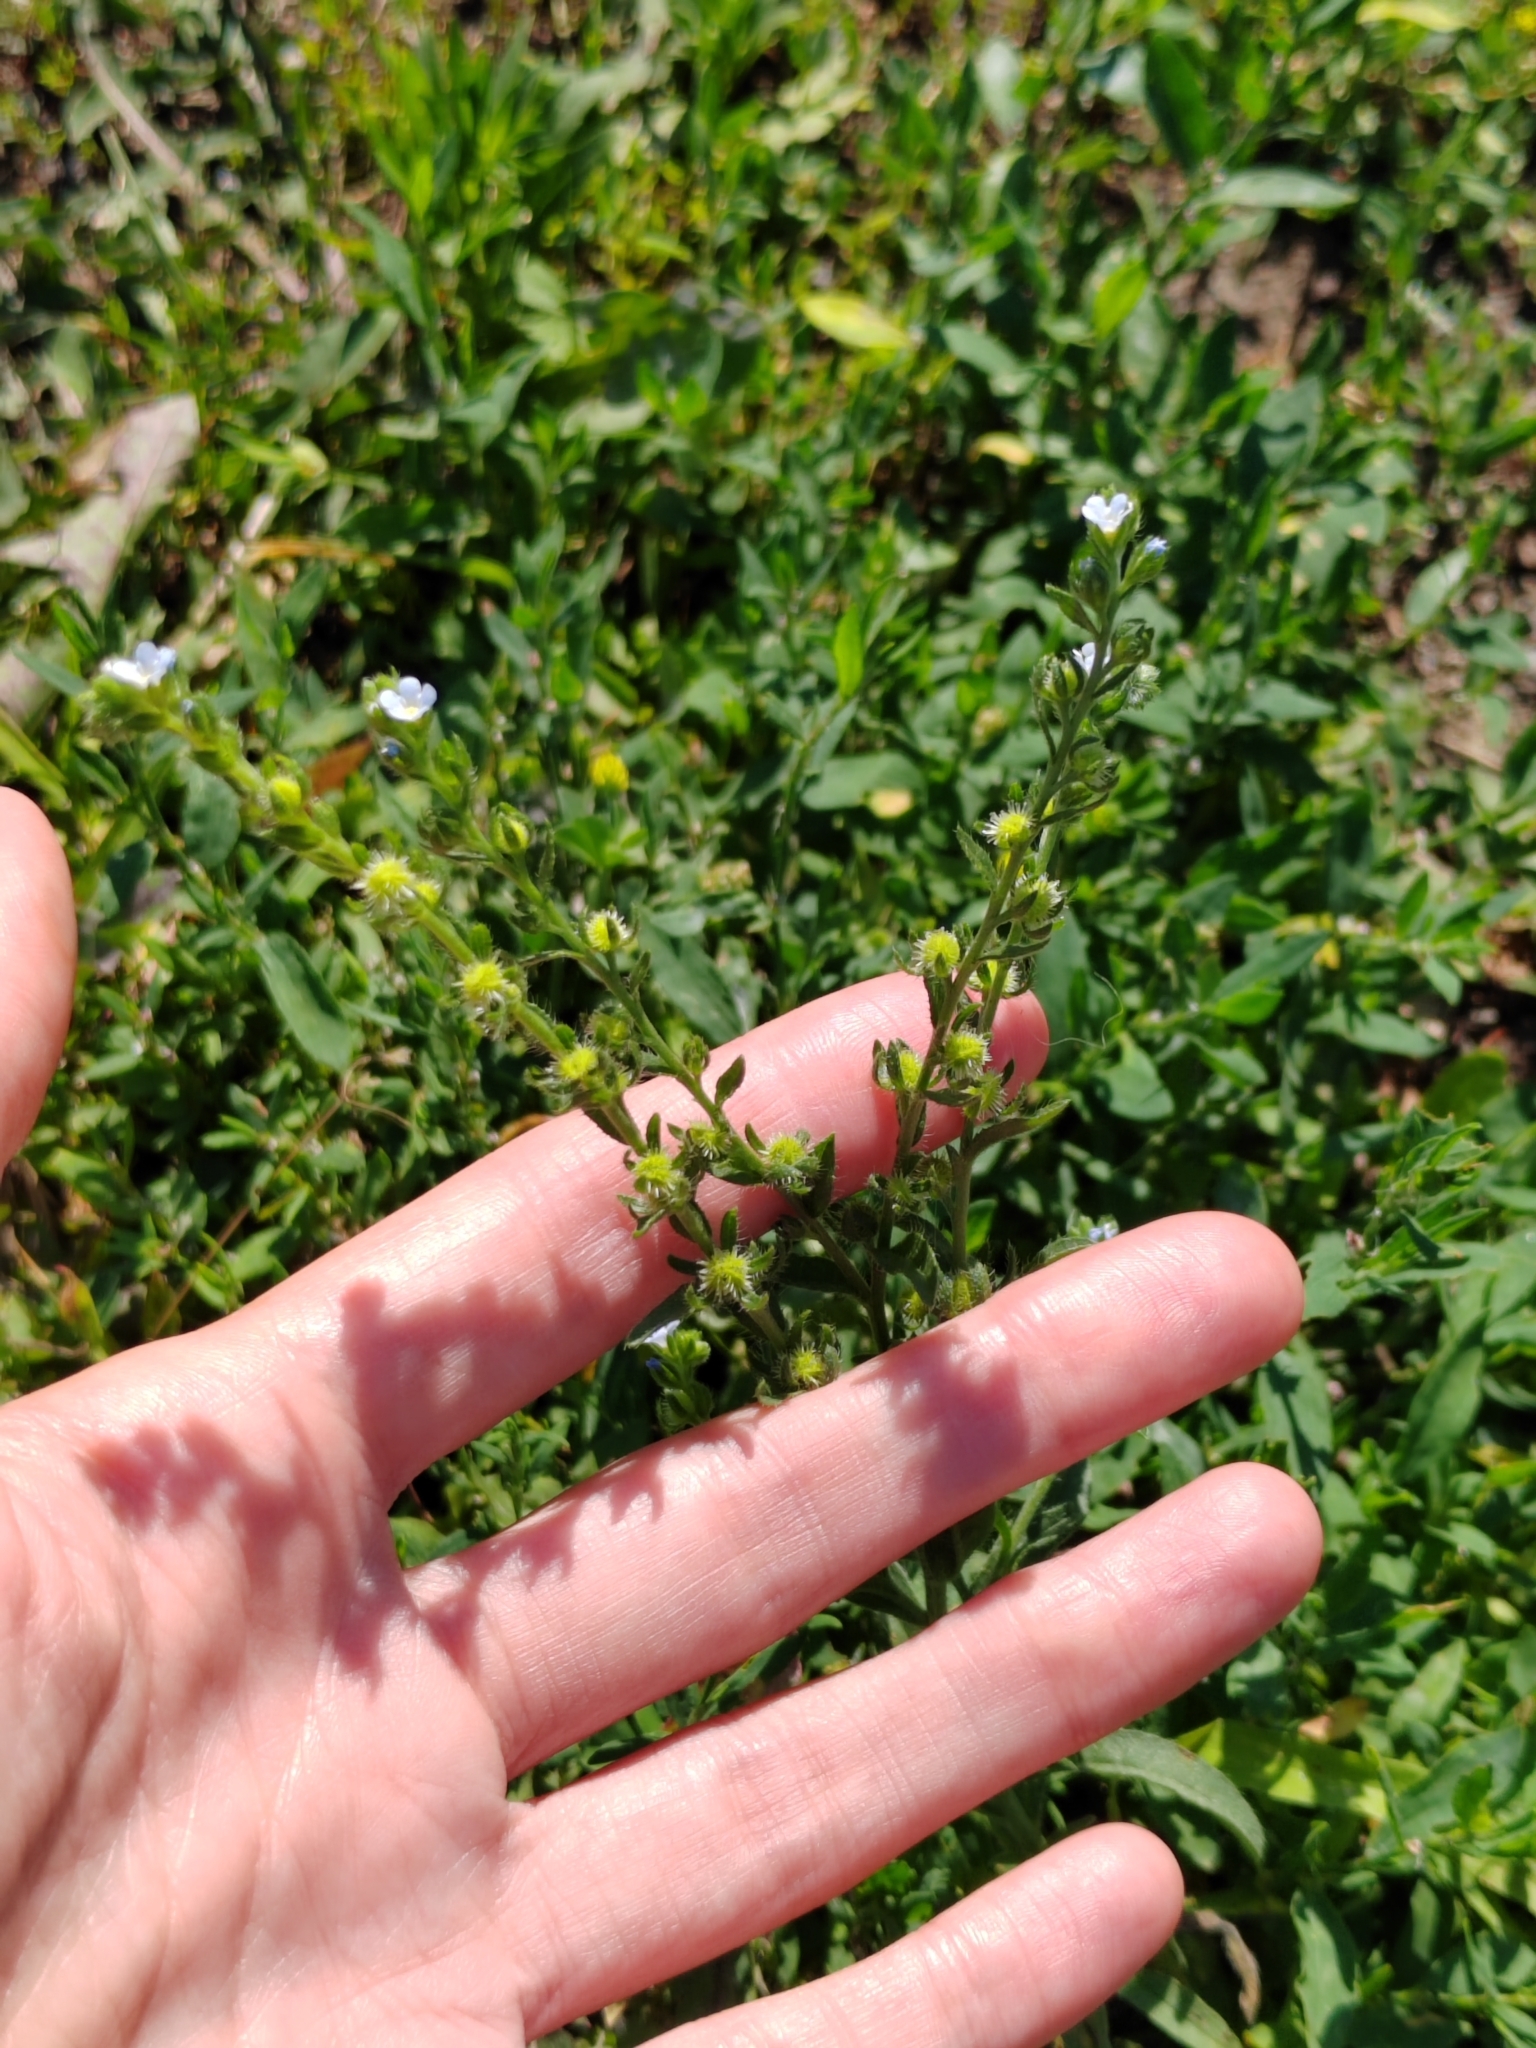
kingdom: Plantae
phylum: Tracheophyta
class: Magnoliopsida
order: Boraginales
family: Boraginaceae
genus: Lappula
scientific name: Lappula squarrosa
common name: European stickseed
